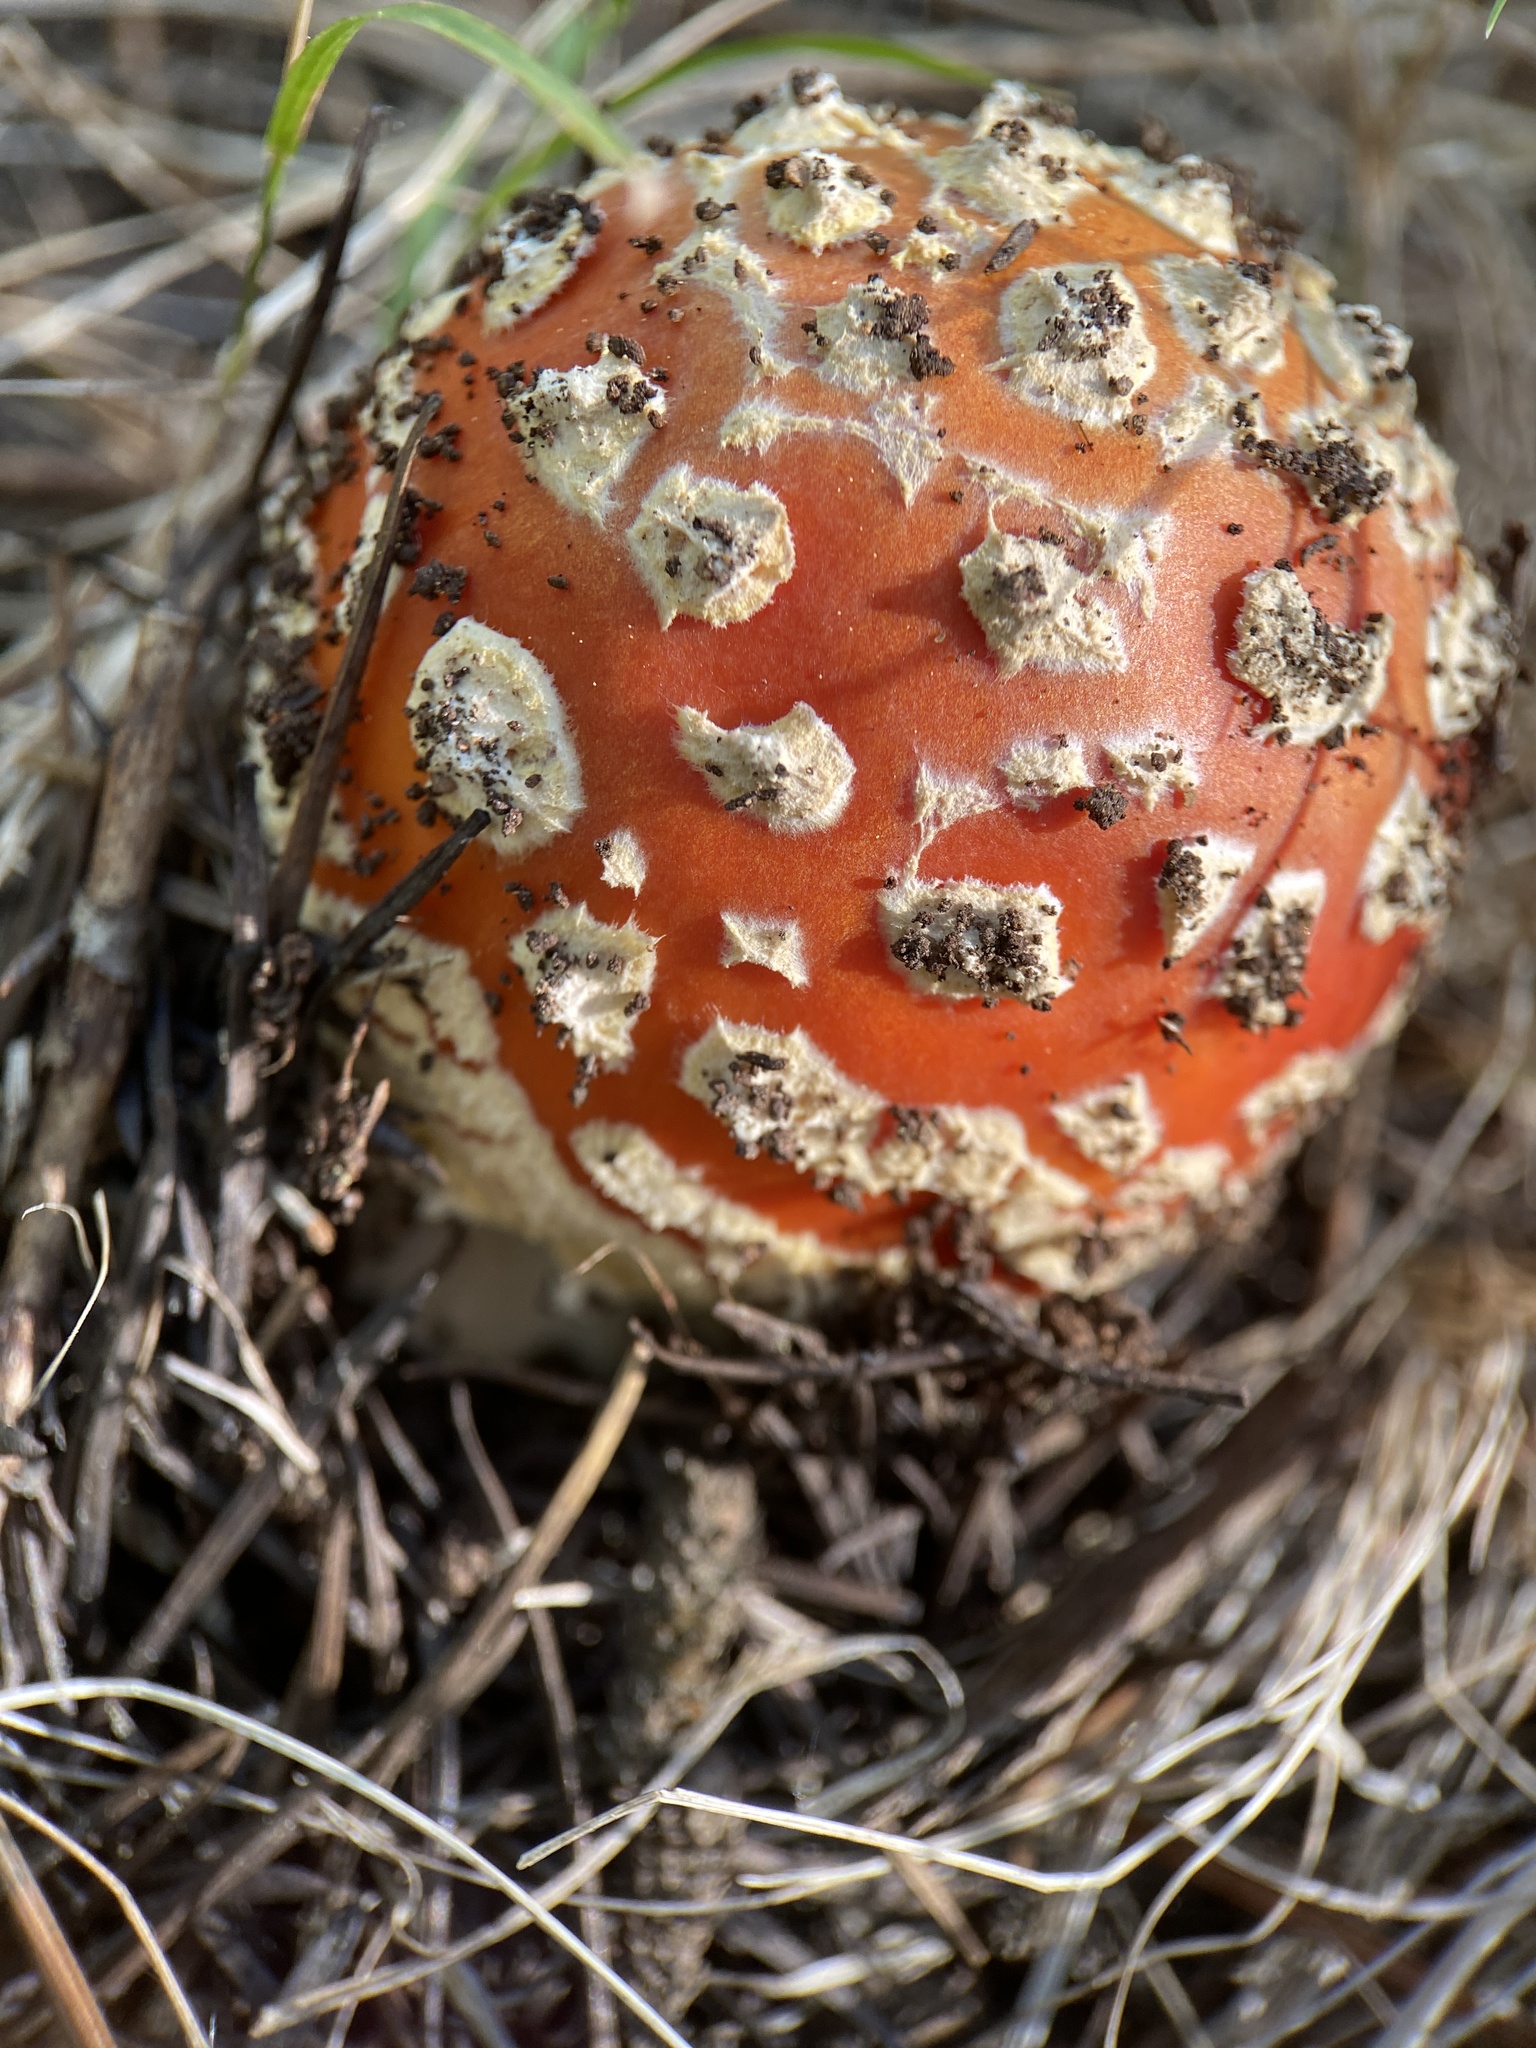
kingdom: Fungi
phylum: Basidiomycota
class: Agaricomycetes
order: Agaricales
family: Amanitaceae
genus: Amanita
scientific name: Amanita muscaria
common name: Fly agaric
